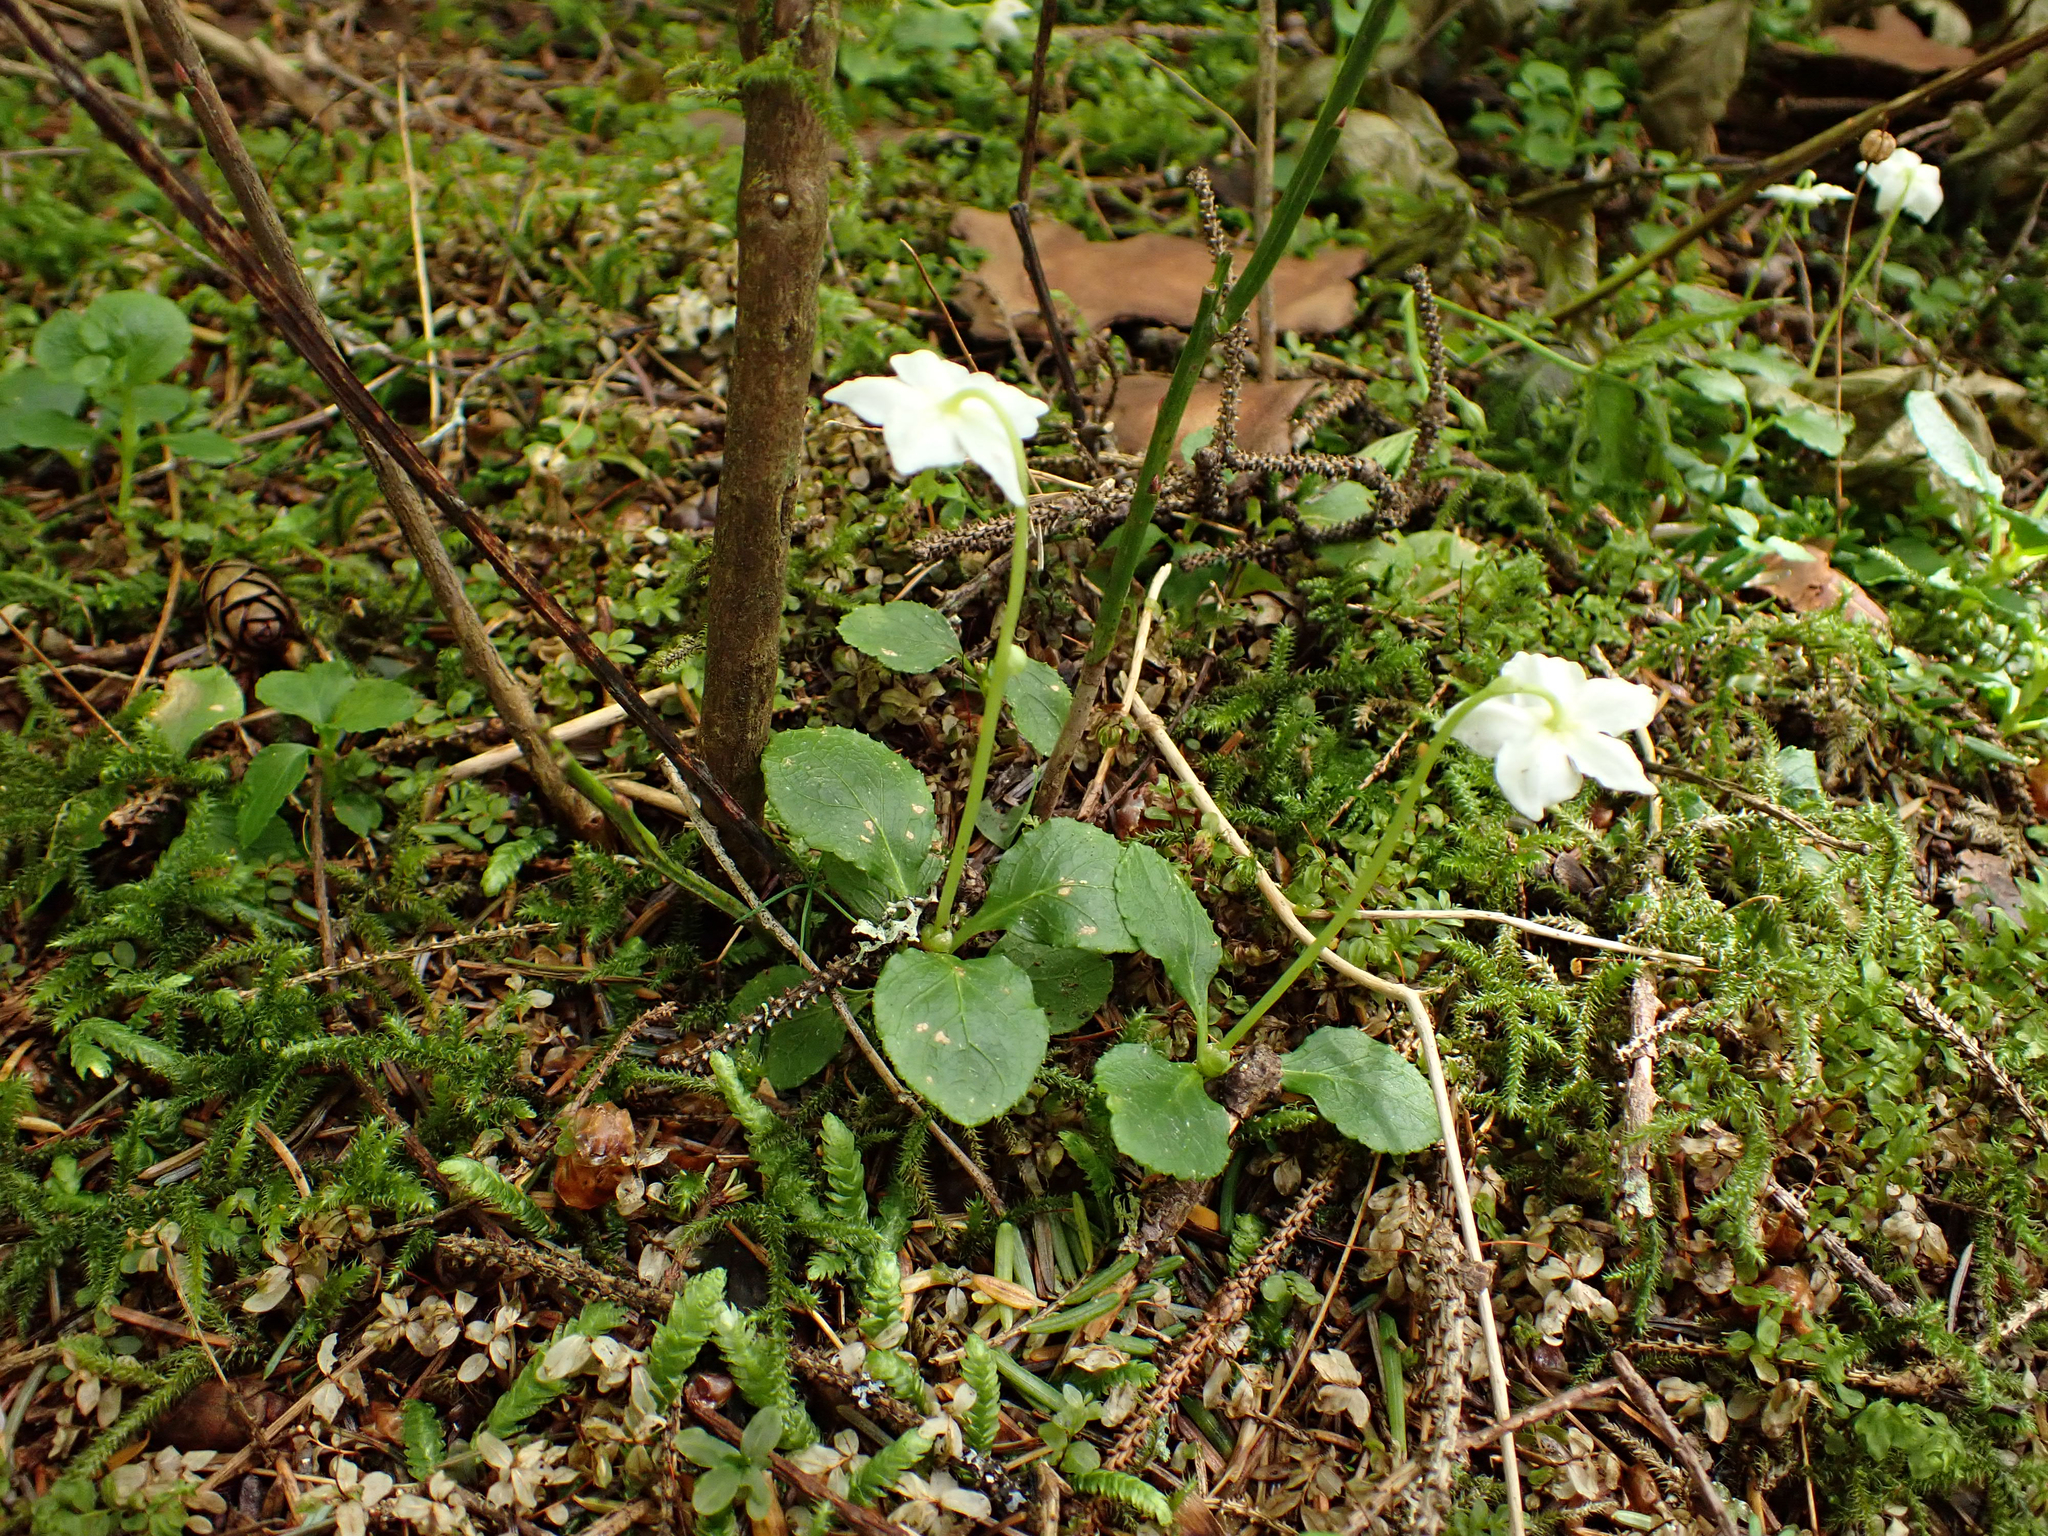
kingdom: Plantae
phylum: Tracheophyta
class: Magnoliopsida
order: Ericales
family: Ericaceae
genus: Moneses
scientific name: Moneses uniflora
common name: One-flowered wintergreen
